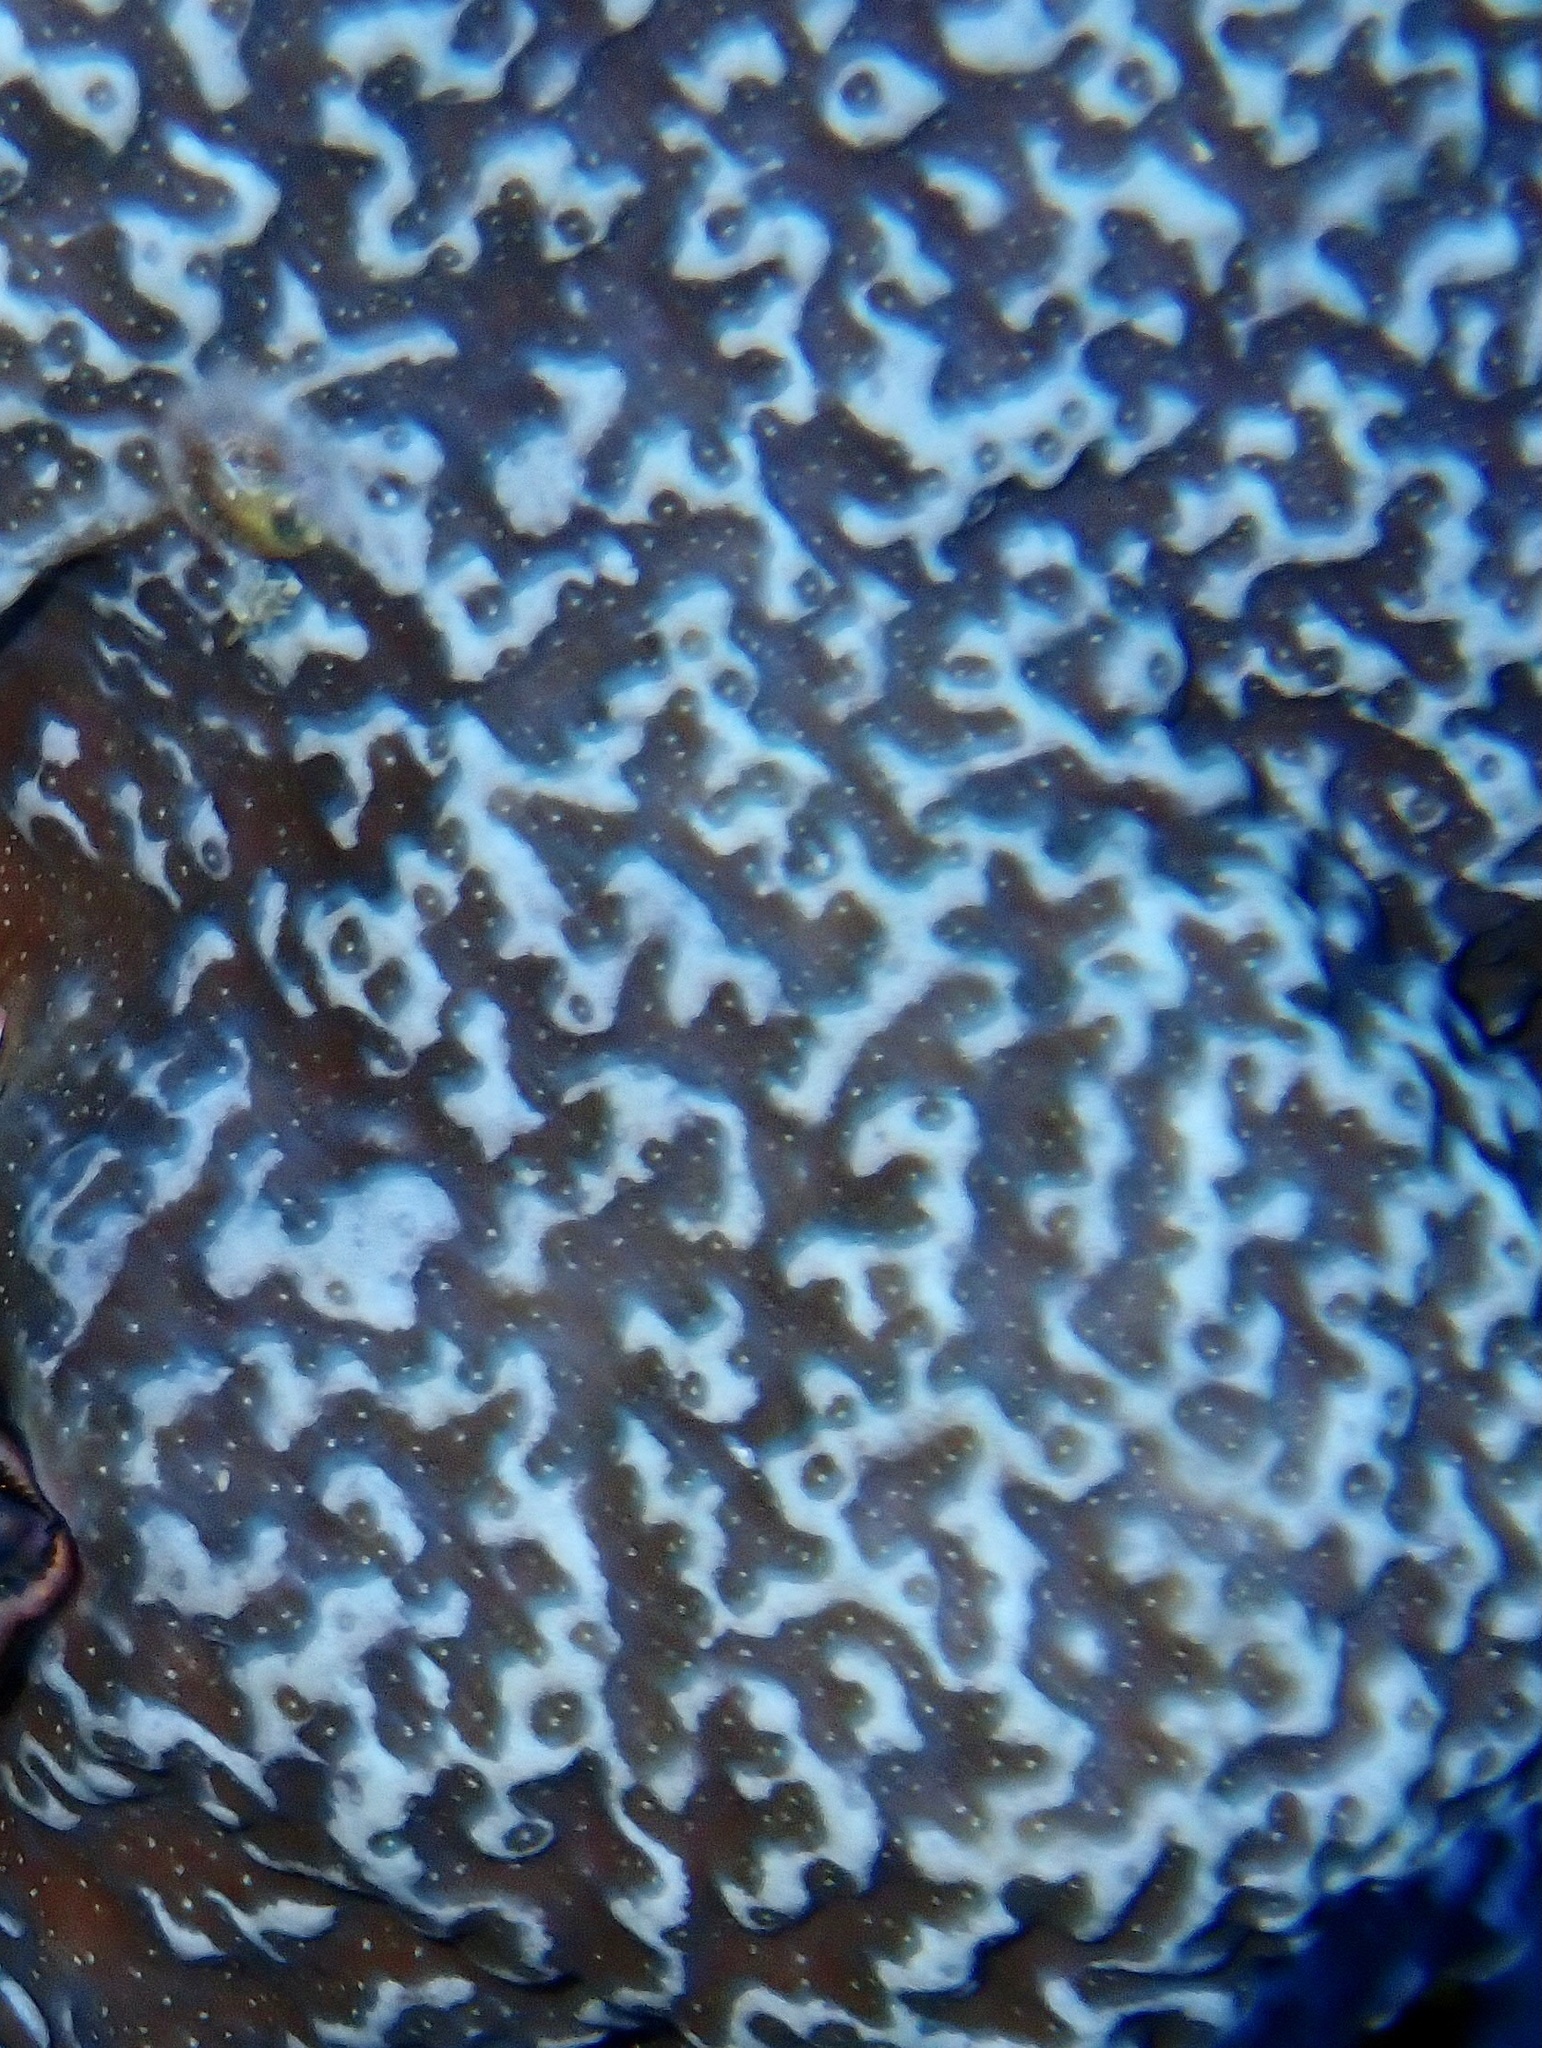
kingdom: Animalia
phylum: Cnidaria
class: Anthozoa
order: Scleractinia
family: Poritidae
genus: Porites
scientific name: Porites rus
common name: Hump coral
